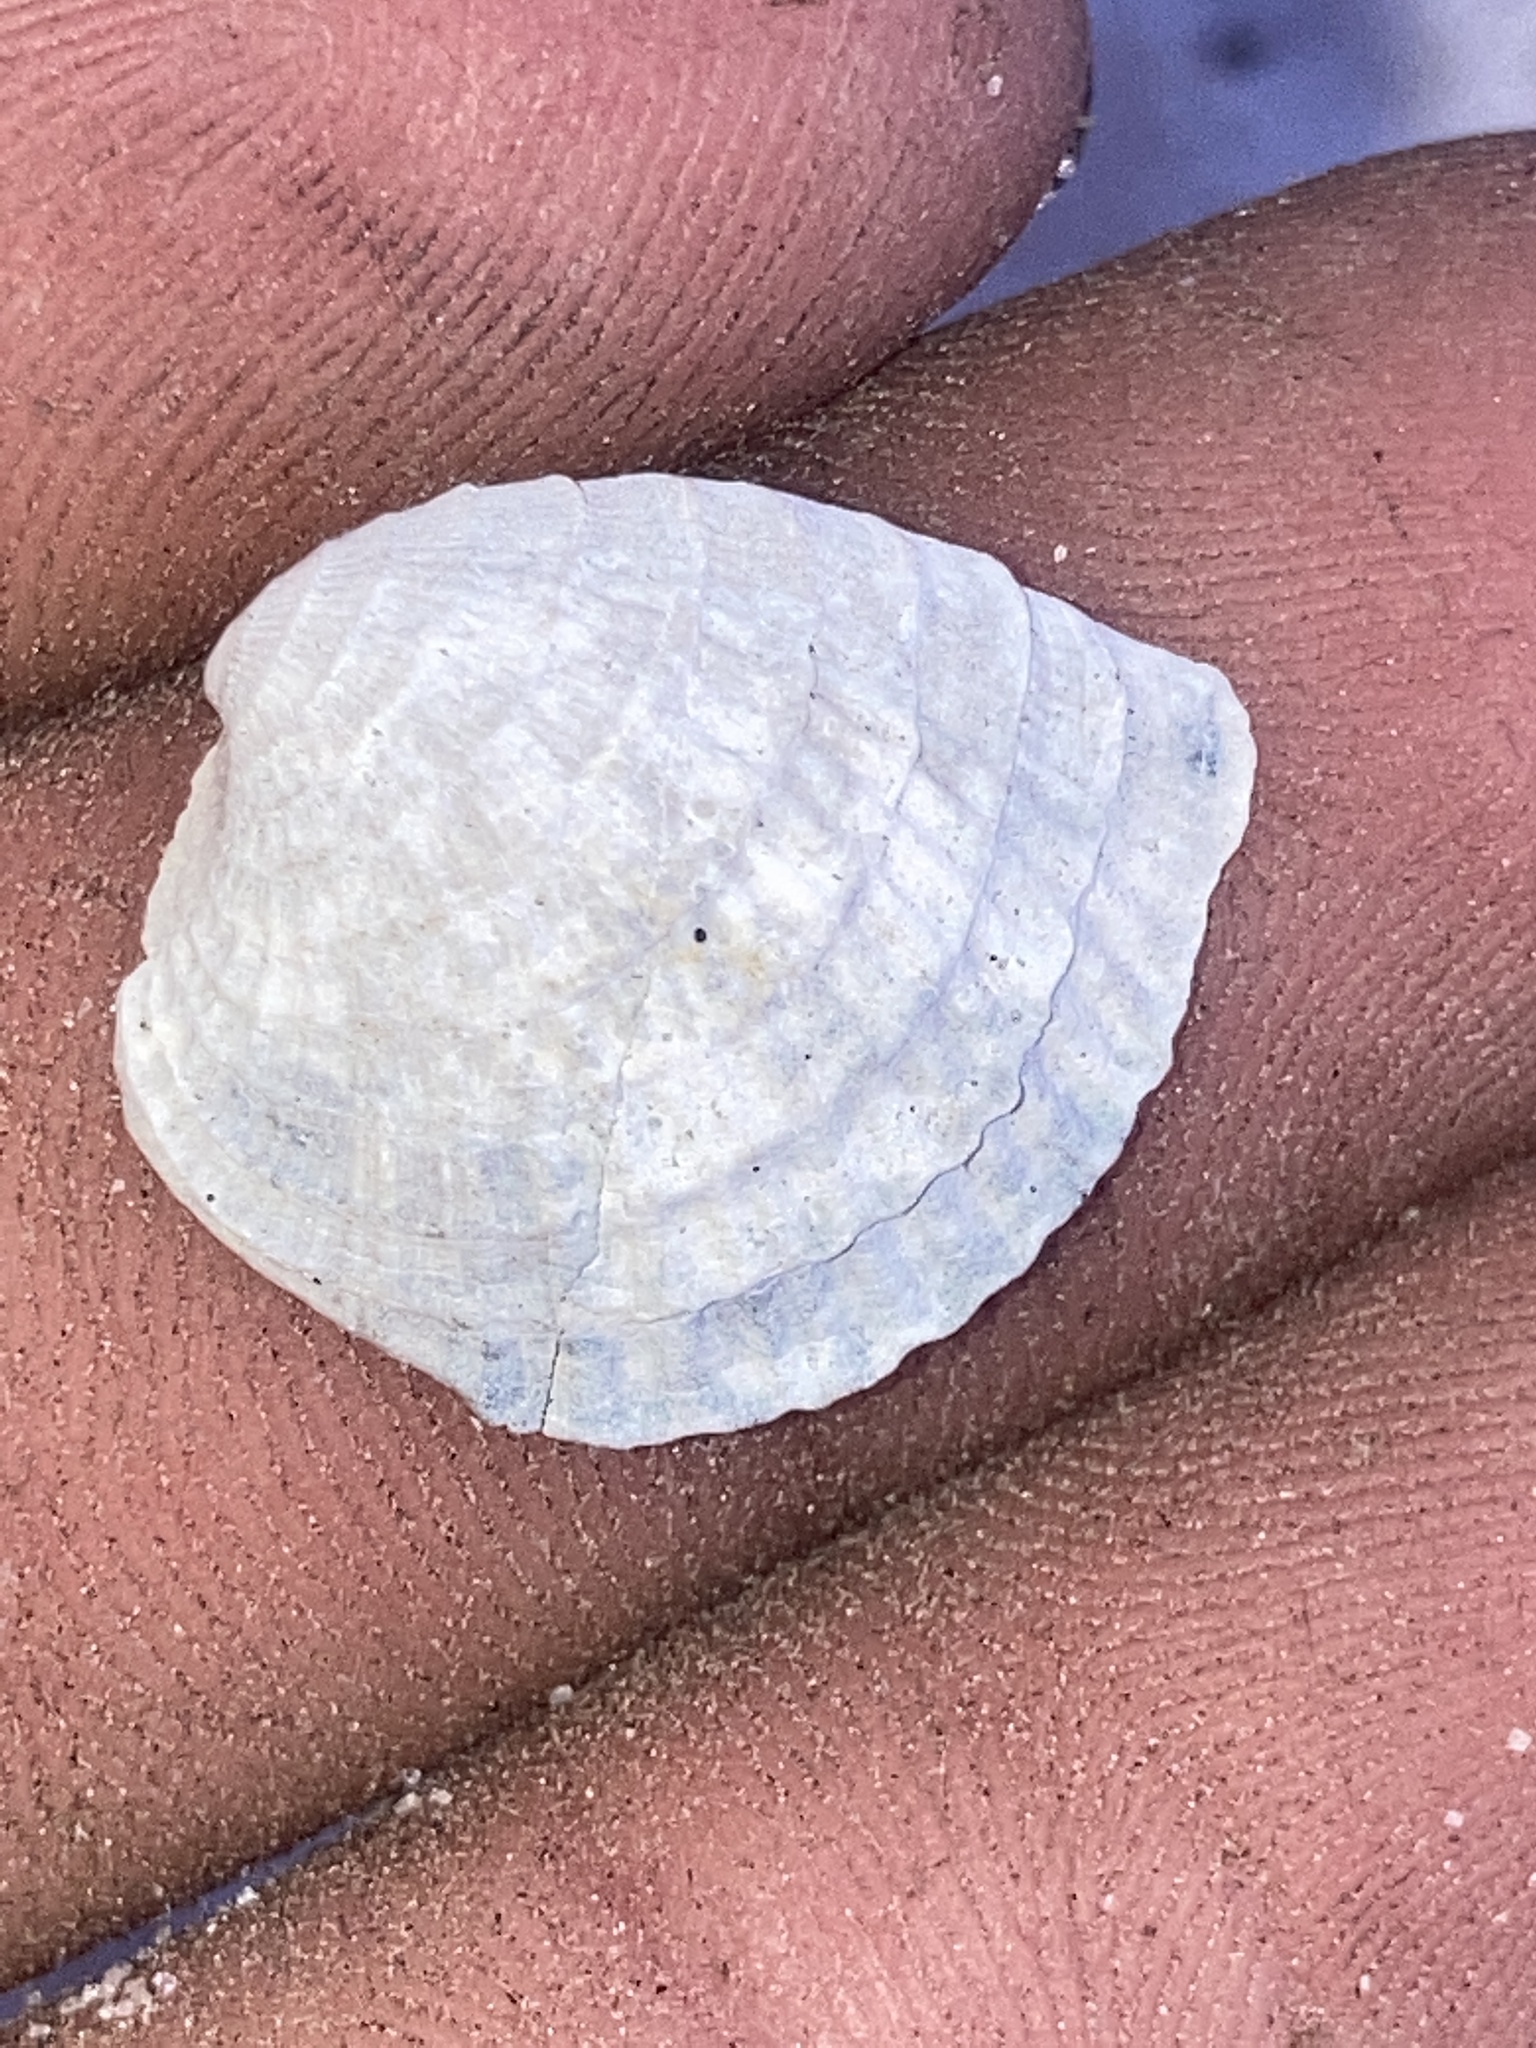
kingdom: Animalia
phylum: Mollusca
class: Bivalvia
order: Venerida
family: Veneridae
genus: Chione
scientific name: Chione elevata
